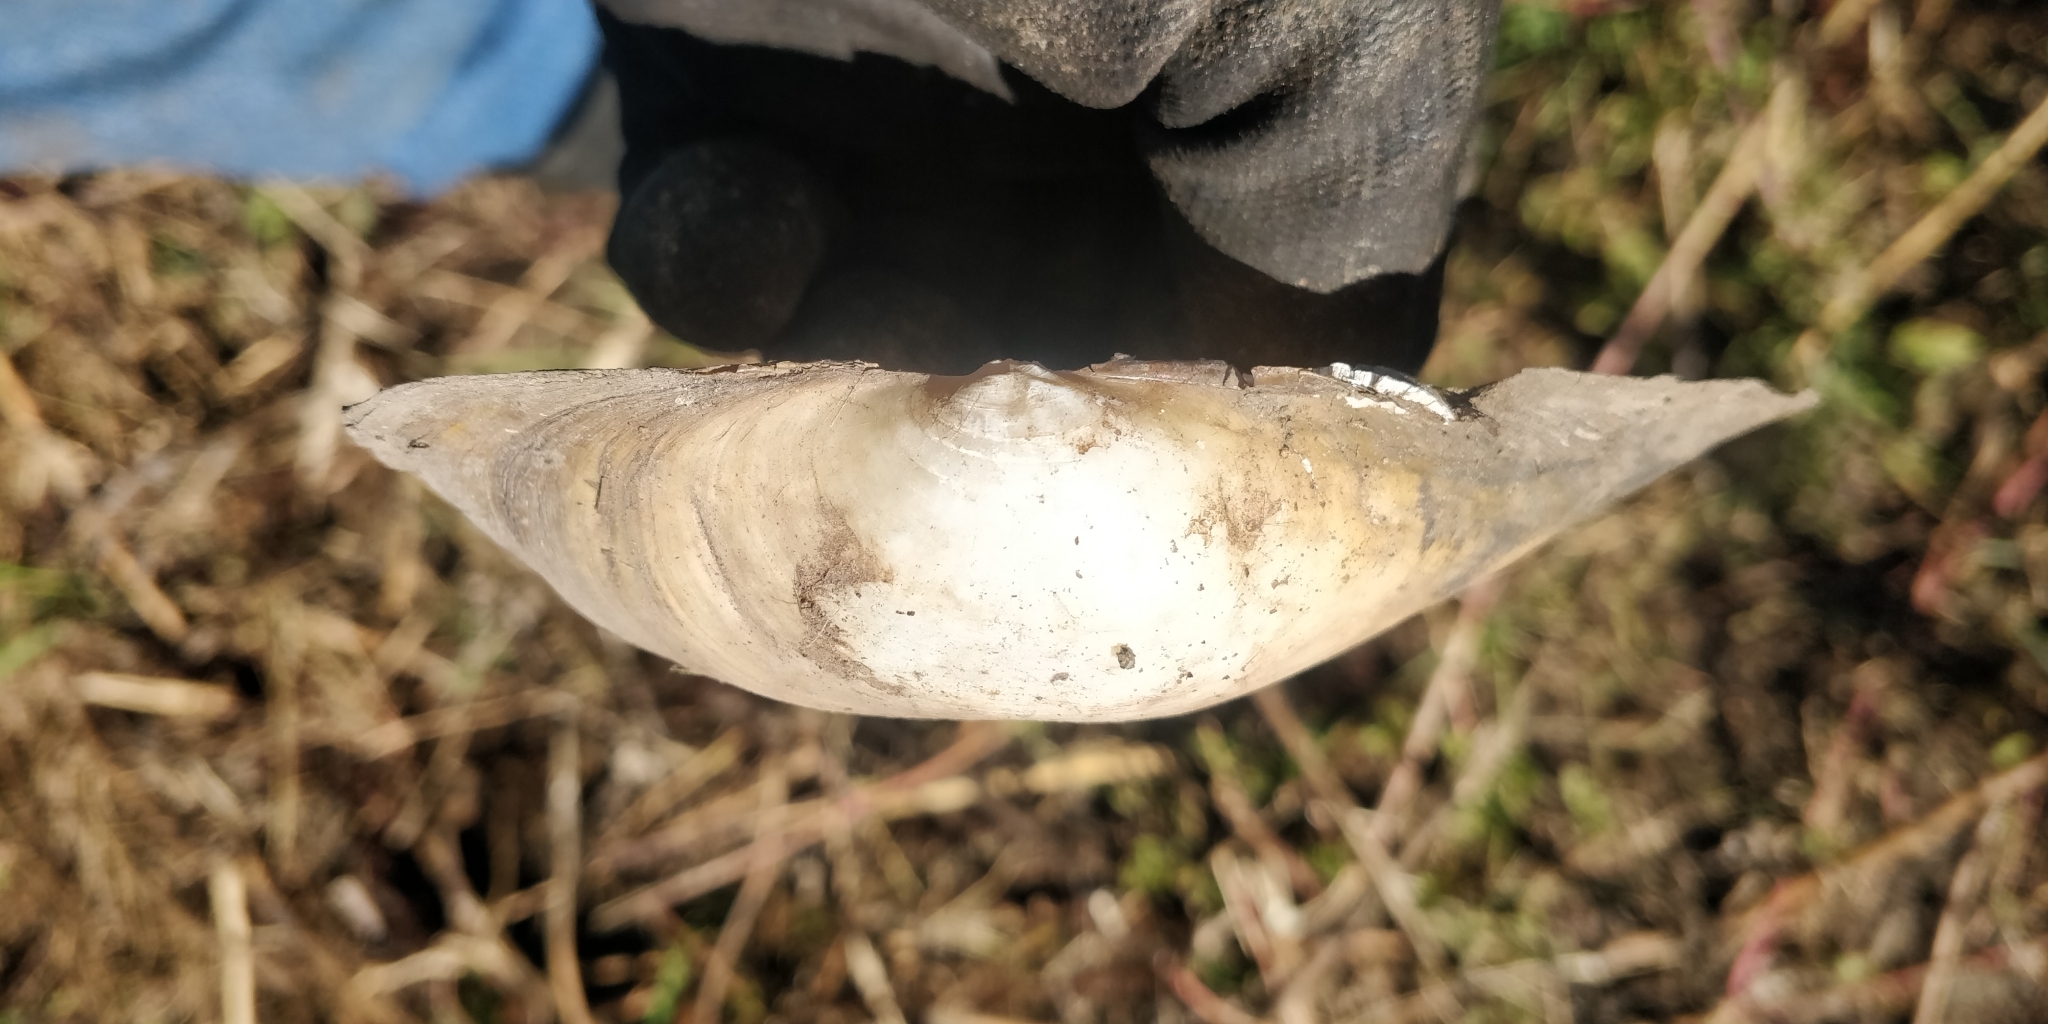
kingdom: Animalia
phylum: Mollusca
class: Bivalvia
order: Unionida
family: Unionidae
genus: Pyganodon
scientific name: Pyganodon grandis
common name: Giant floater
